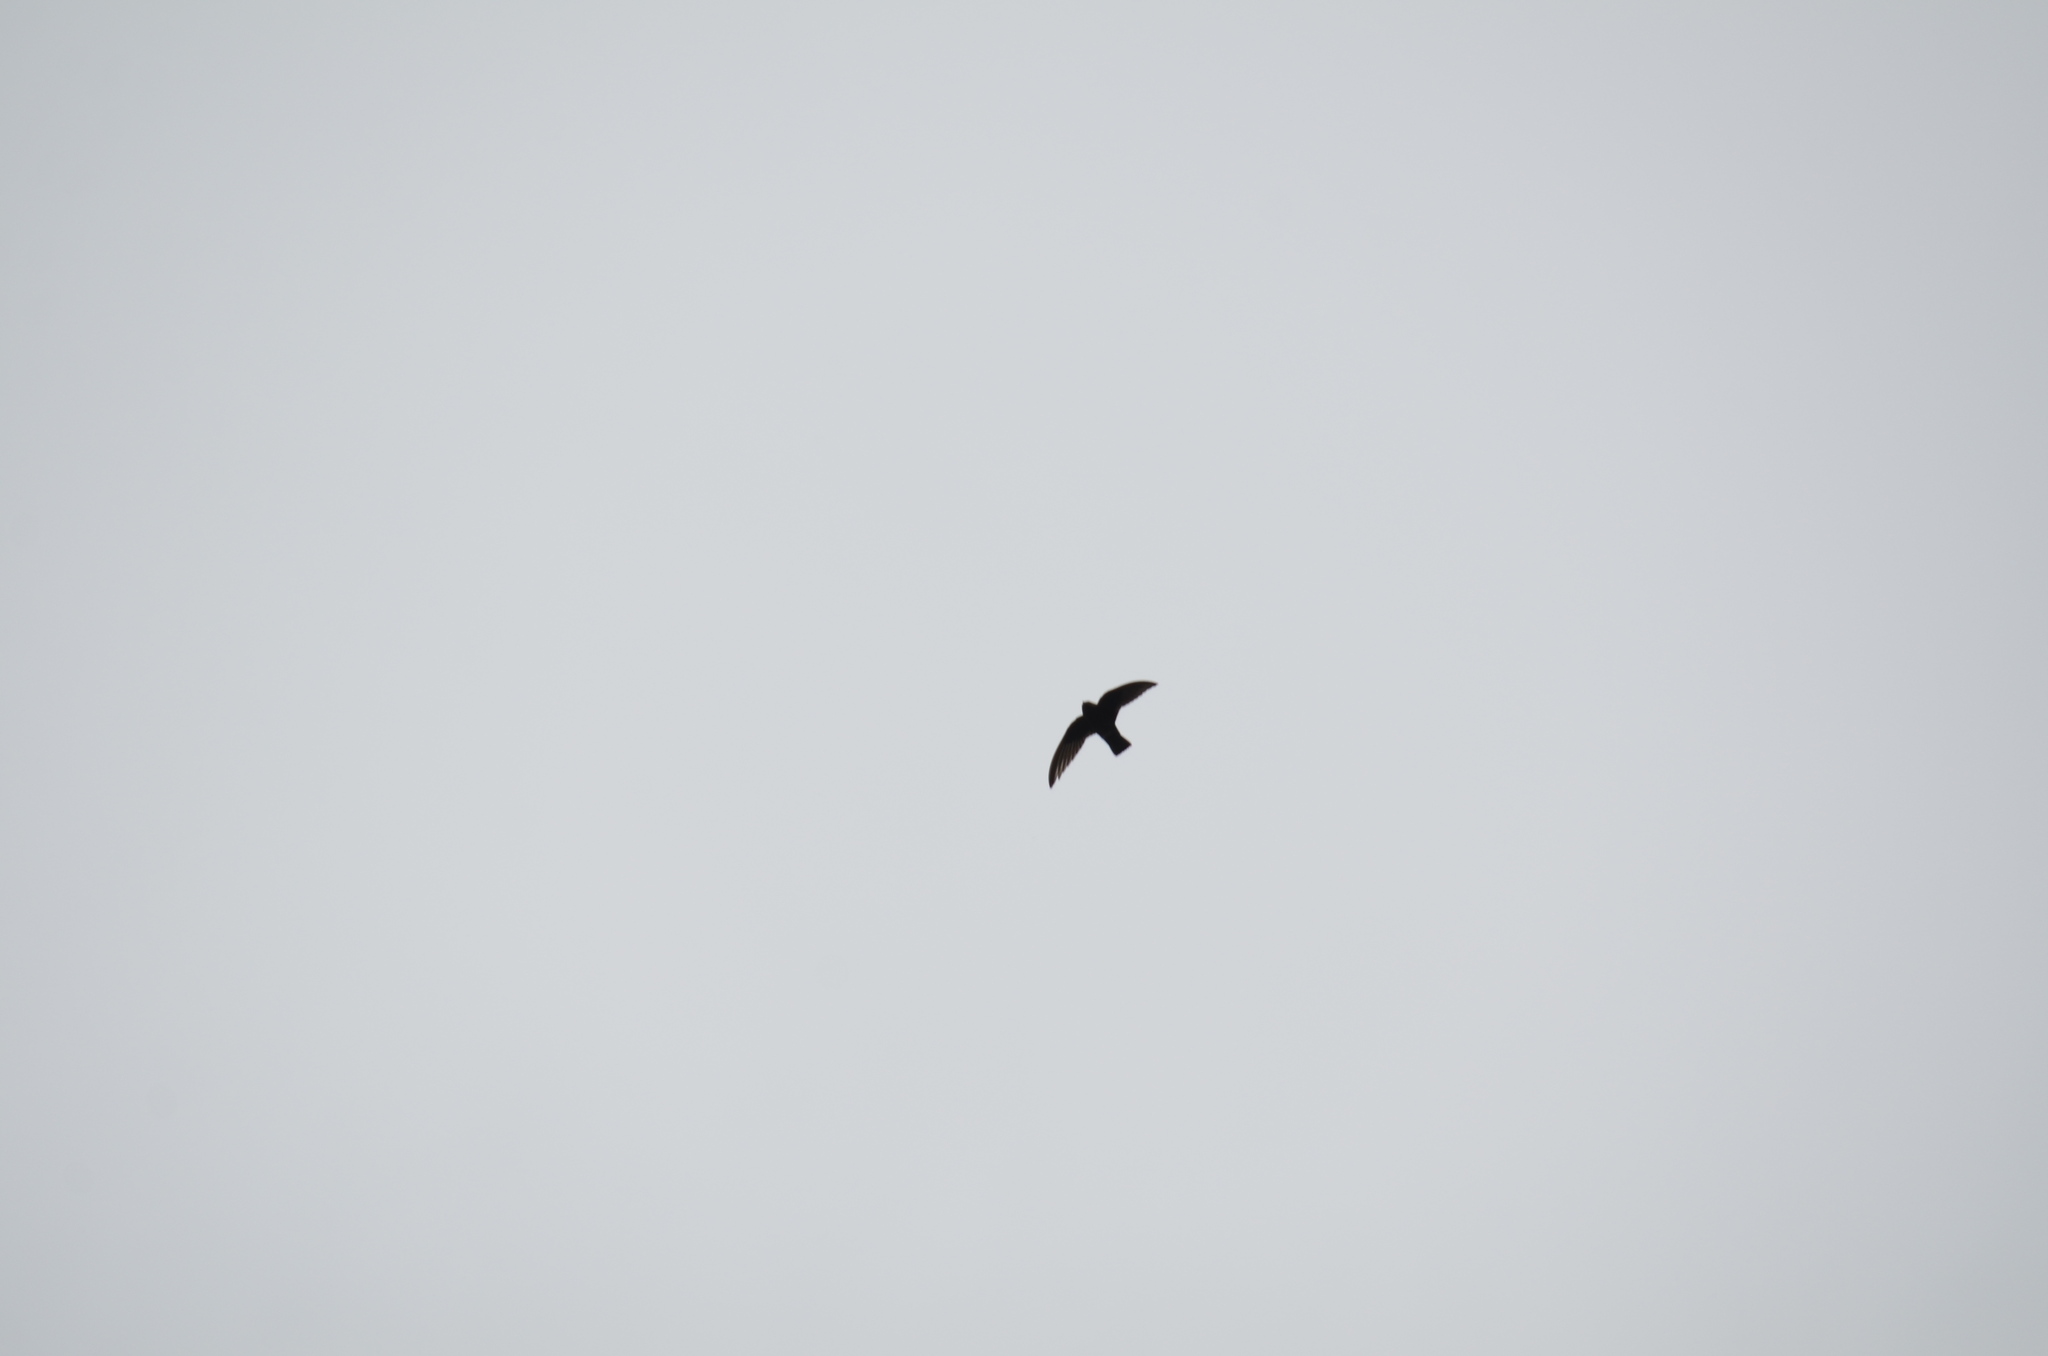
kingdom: Animalia
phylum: Chordata
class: Aves
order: Apodiformes
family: Apodidae
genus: Cypseloides
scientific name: Cypseloides niger
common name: Black swift
